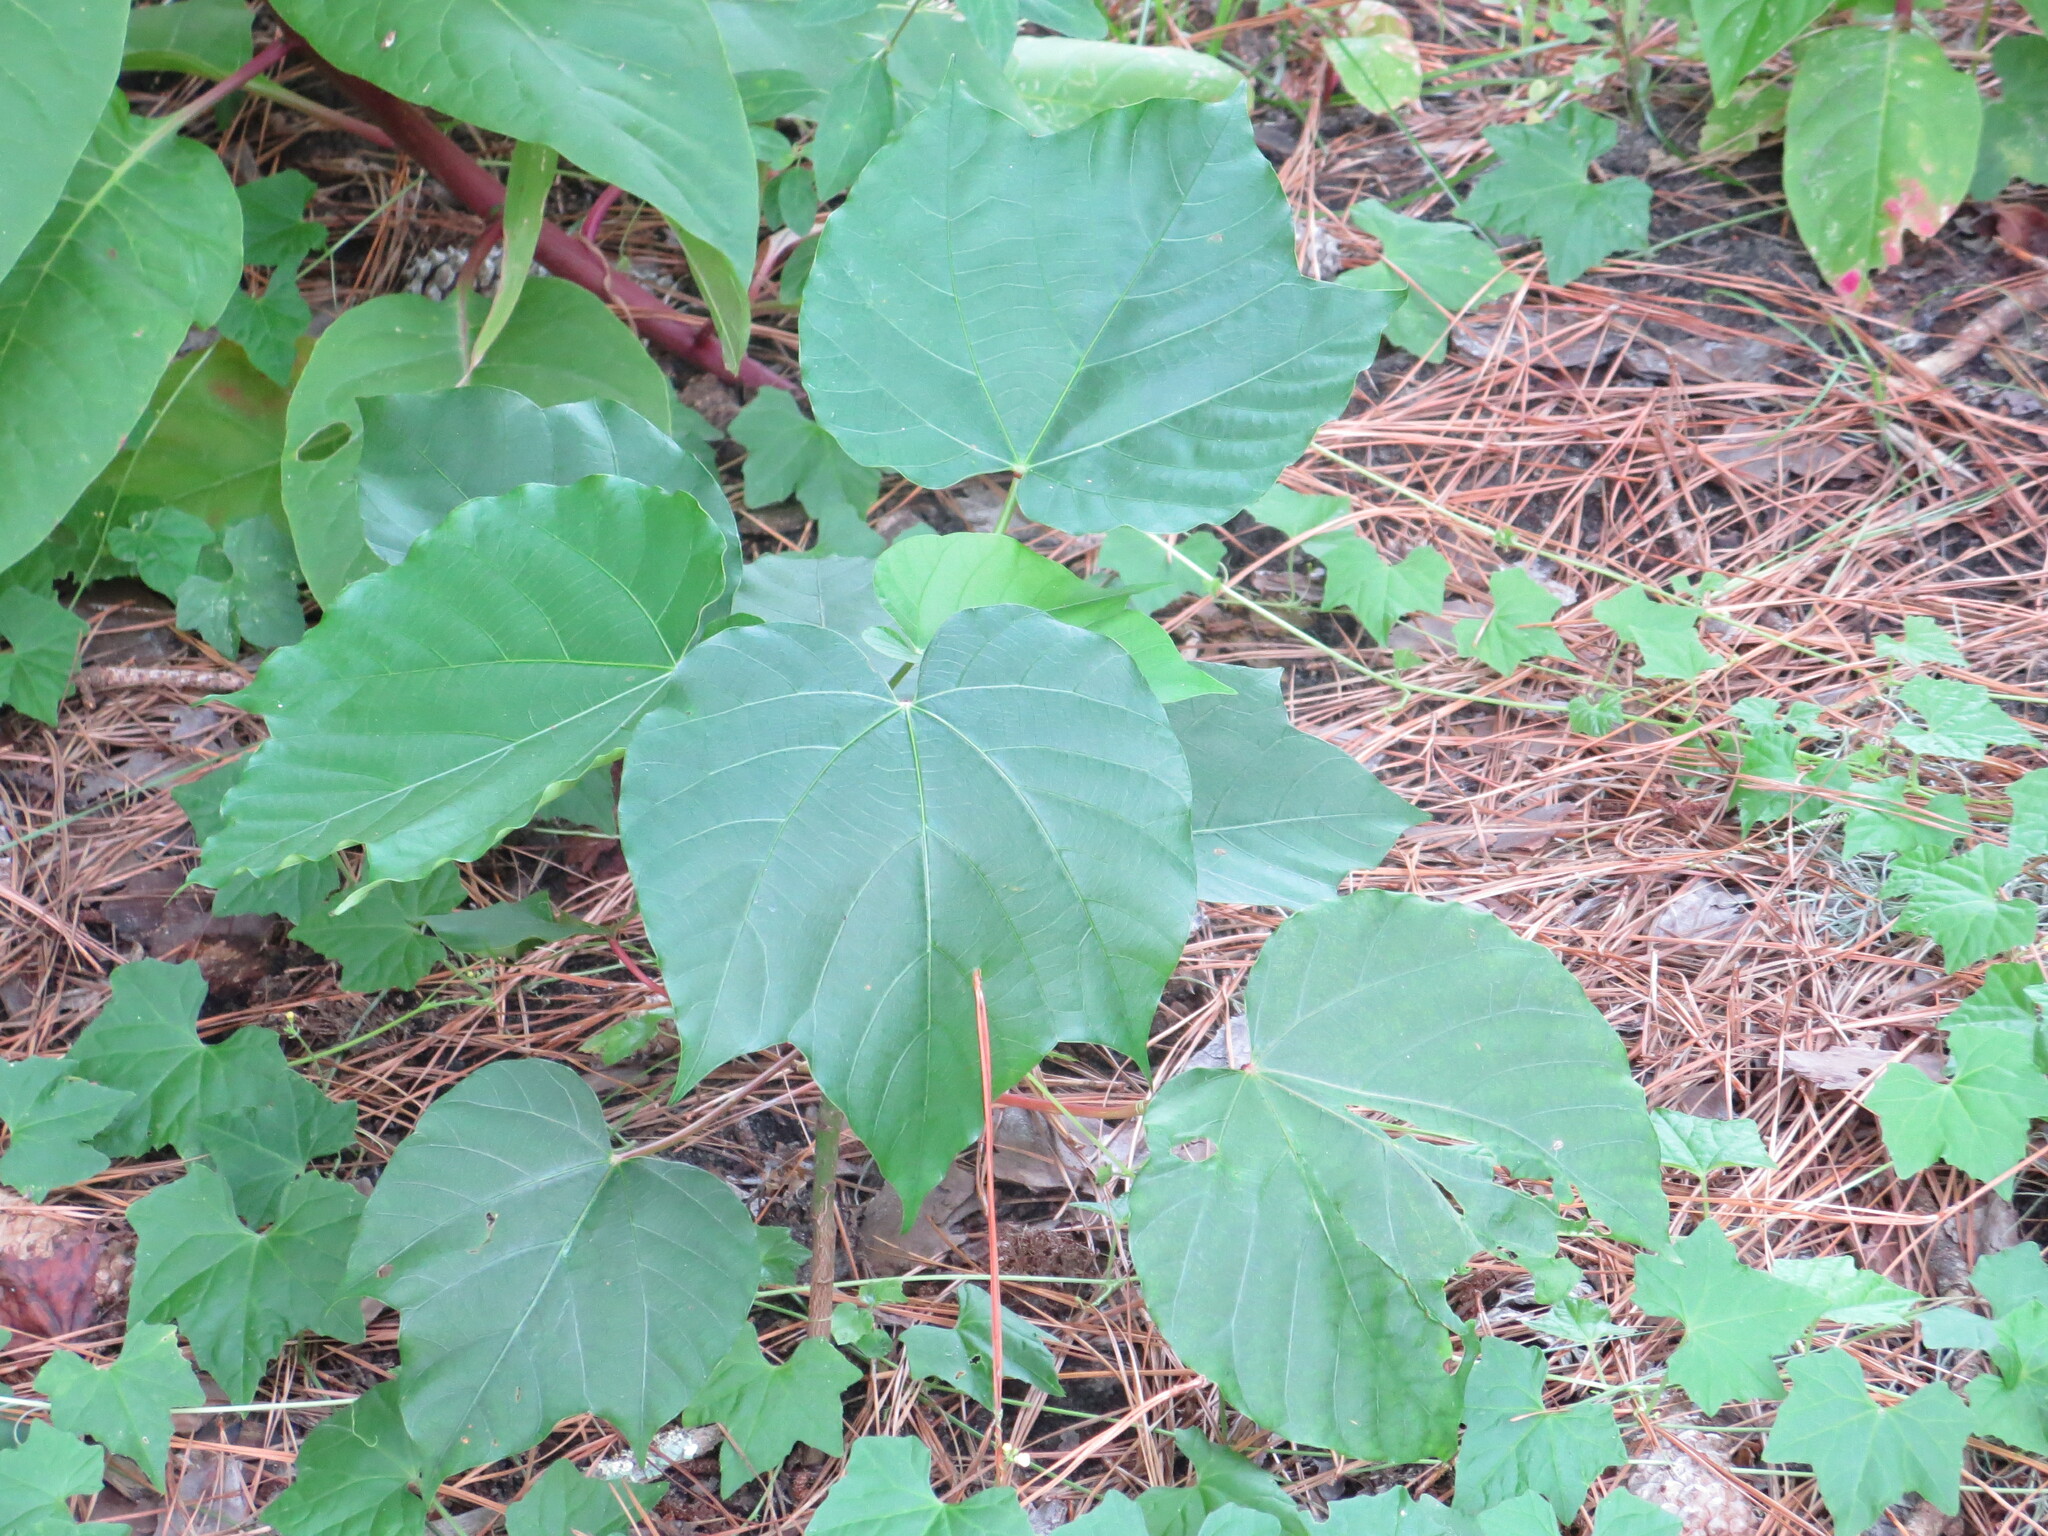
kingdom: Plantae
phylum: Tracheophyta
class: Magnoliopsida
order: Malpighiales
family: Euphorbiaceae
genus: Vernicia
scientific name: Vernicia fordii
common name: Tungoil tree
